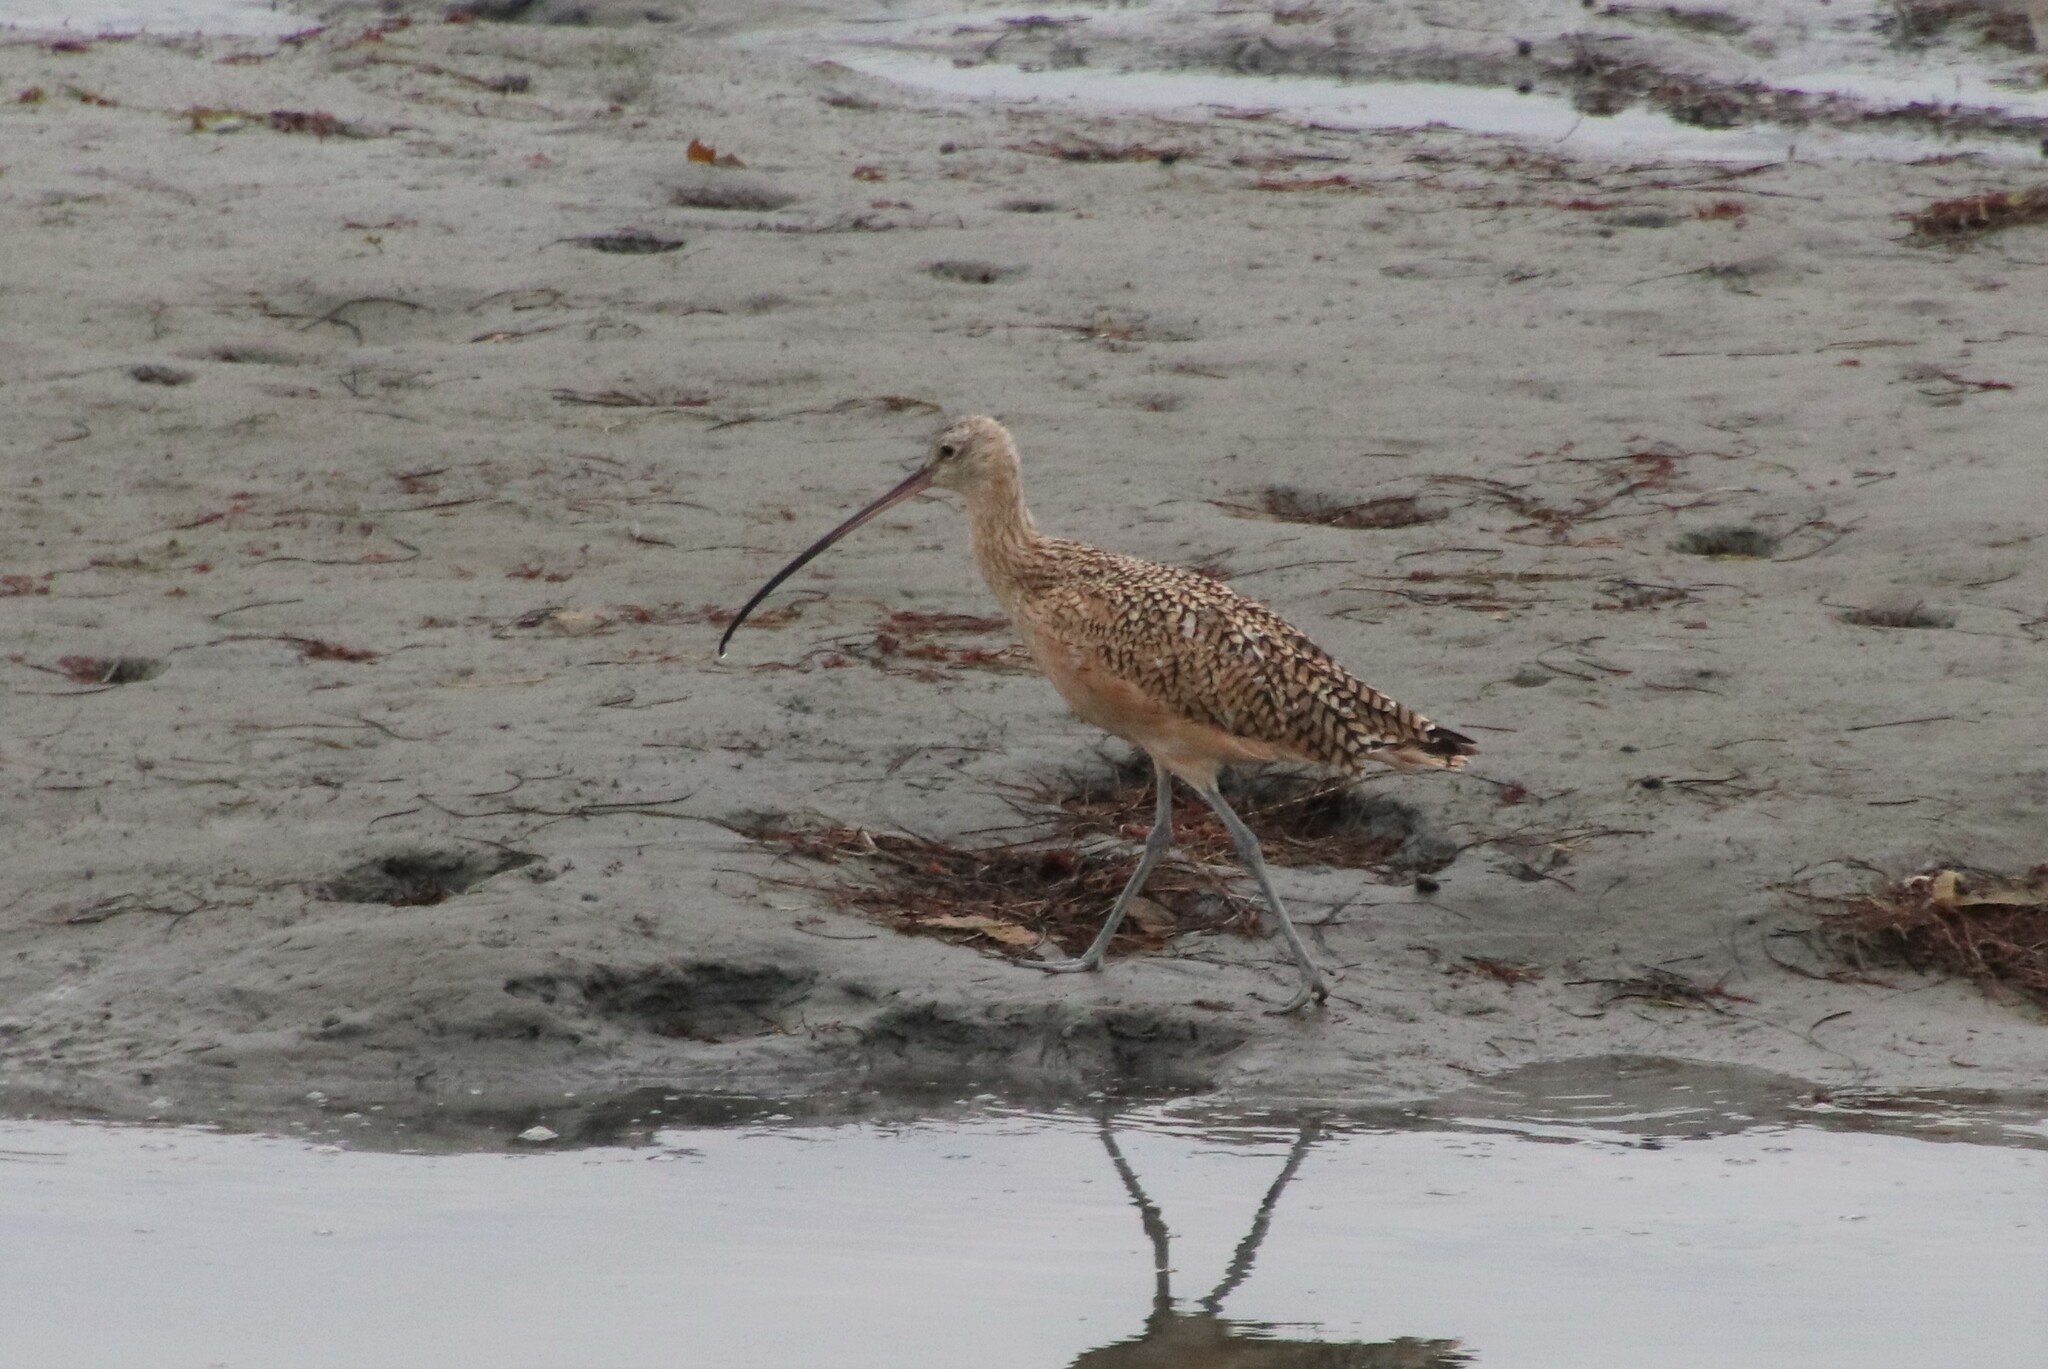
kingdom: Animalia
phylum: Chordata
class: Aves
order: Charadriiformes
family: Scolopacidae
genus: Numenius
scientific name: Numenius americanus
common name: Long-billed curlew
